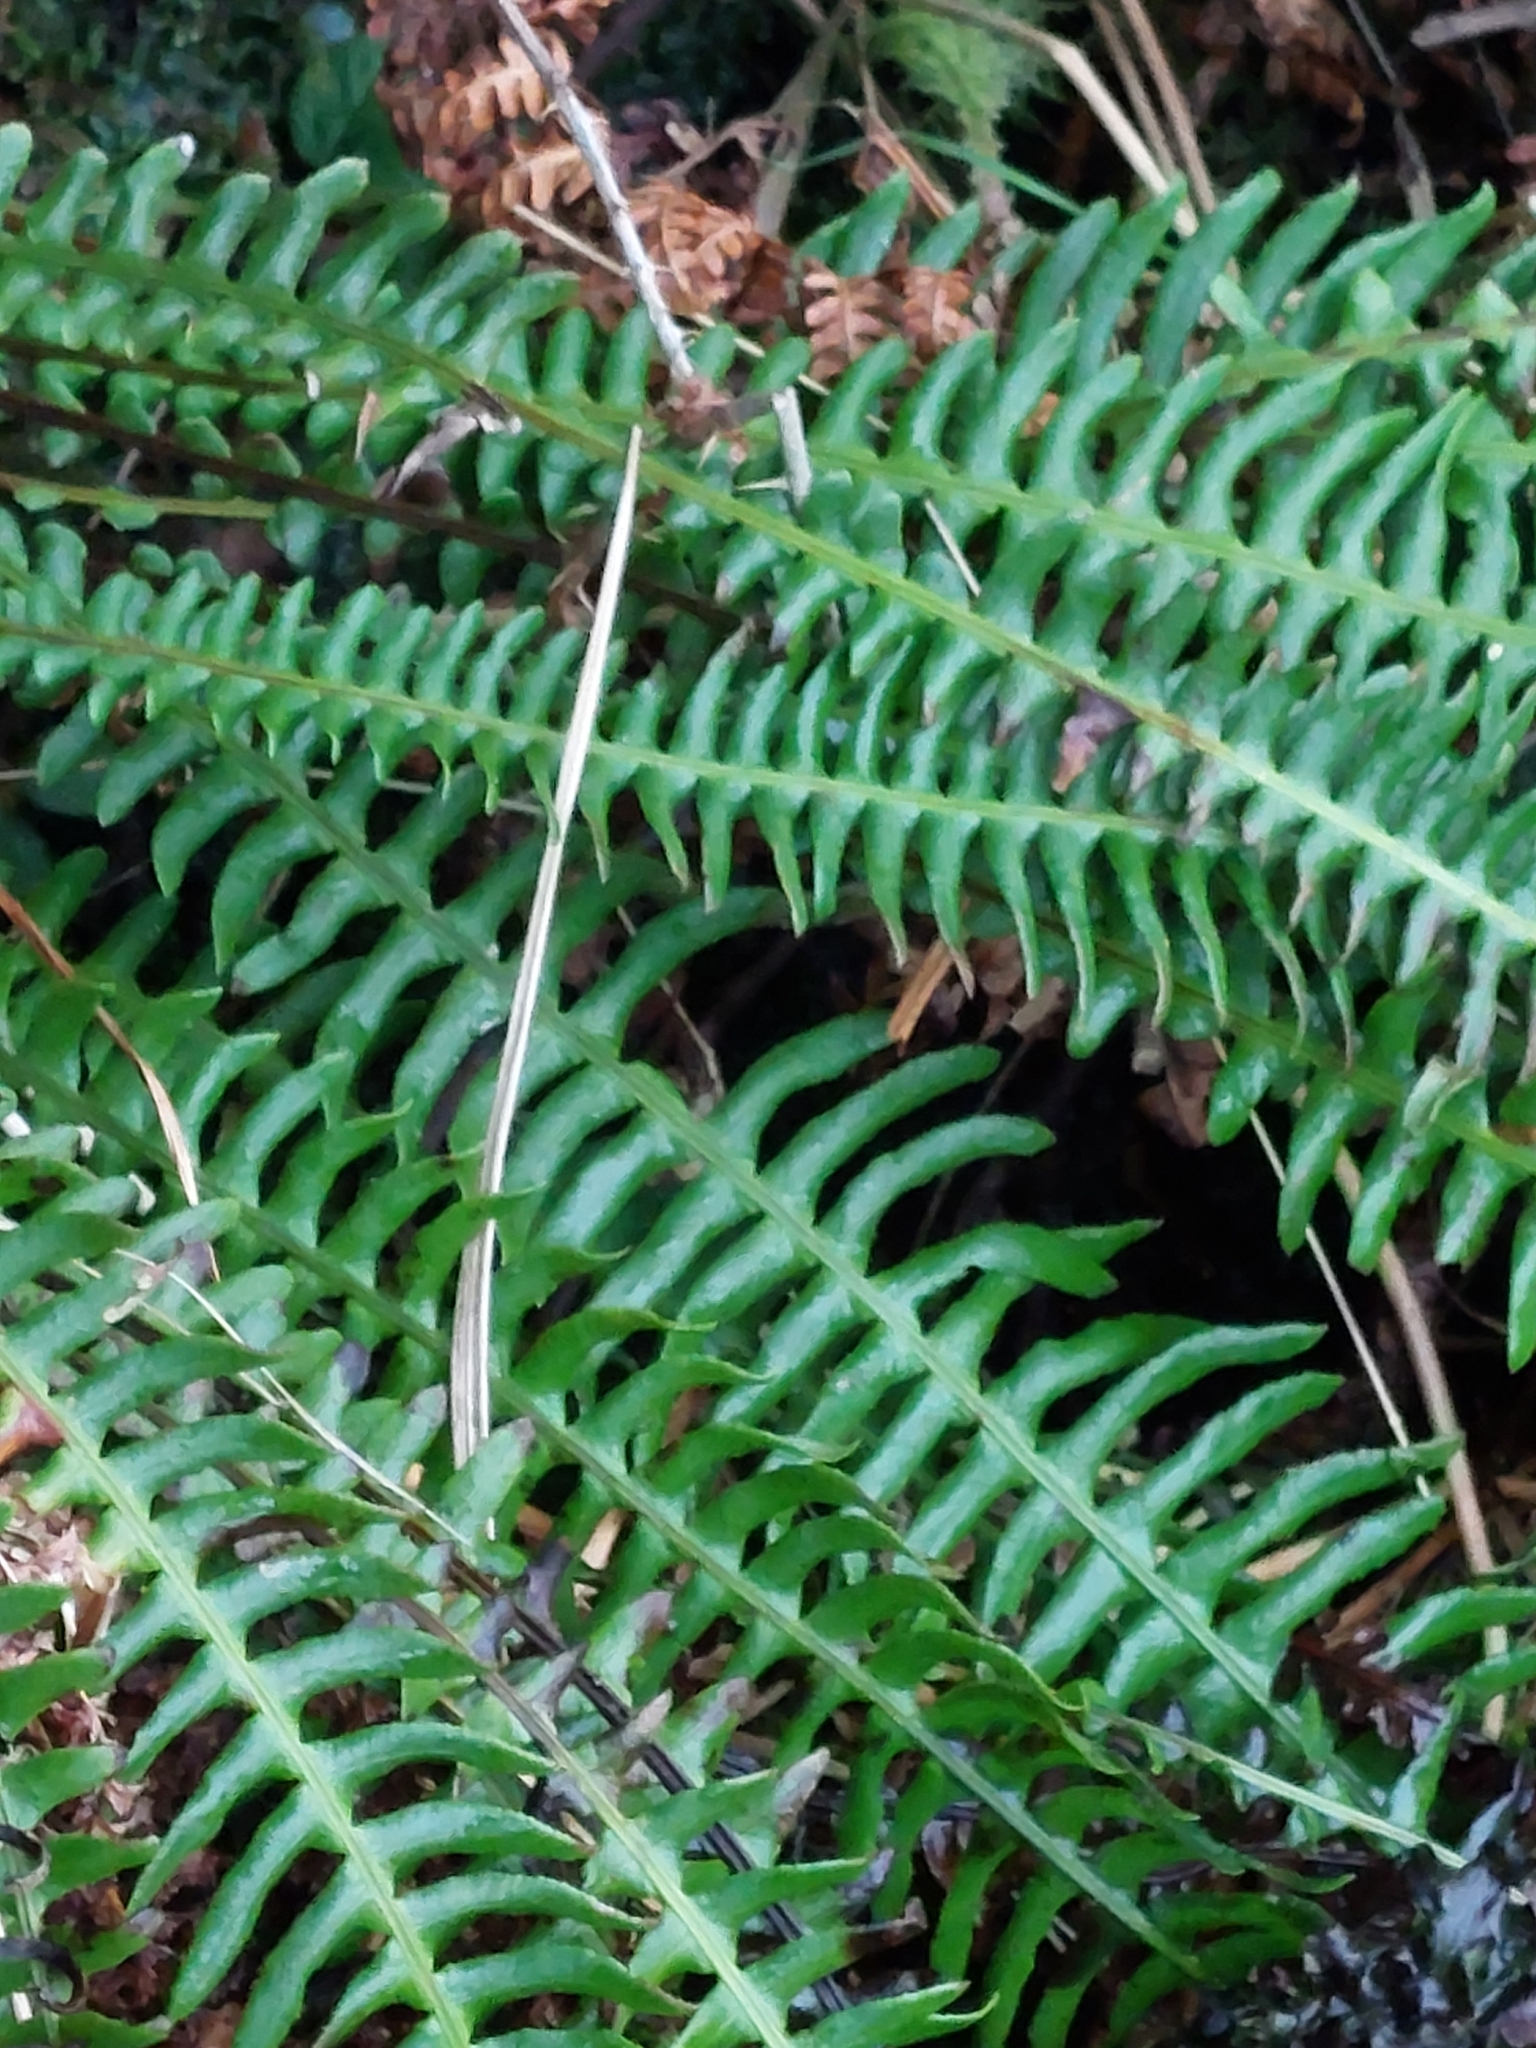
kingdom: Plantae
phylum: Tracheophyta
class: Polypodiopsida
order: Polypodiales
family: Blechnaceae
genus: Struthiopteris
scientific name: Struthiopteris spicant
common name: Deer fern
